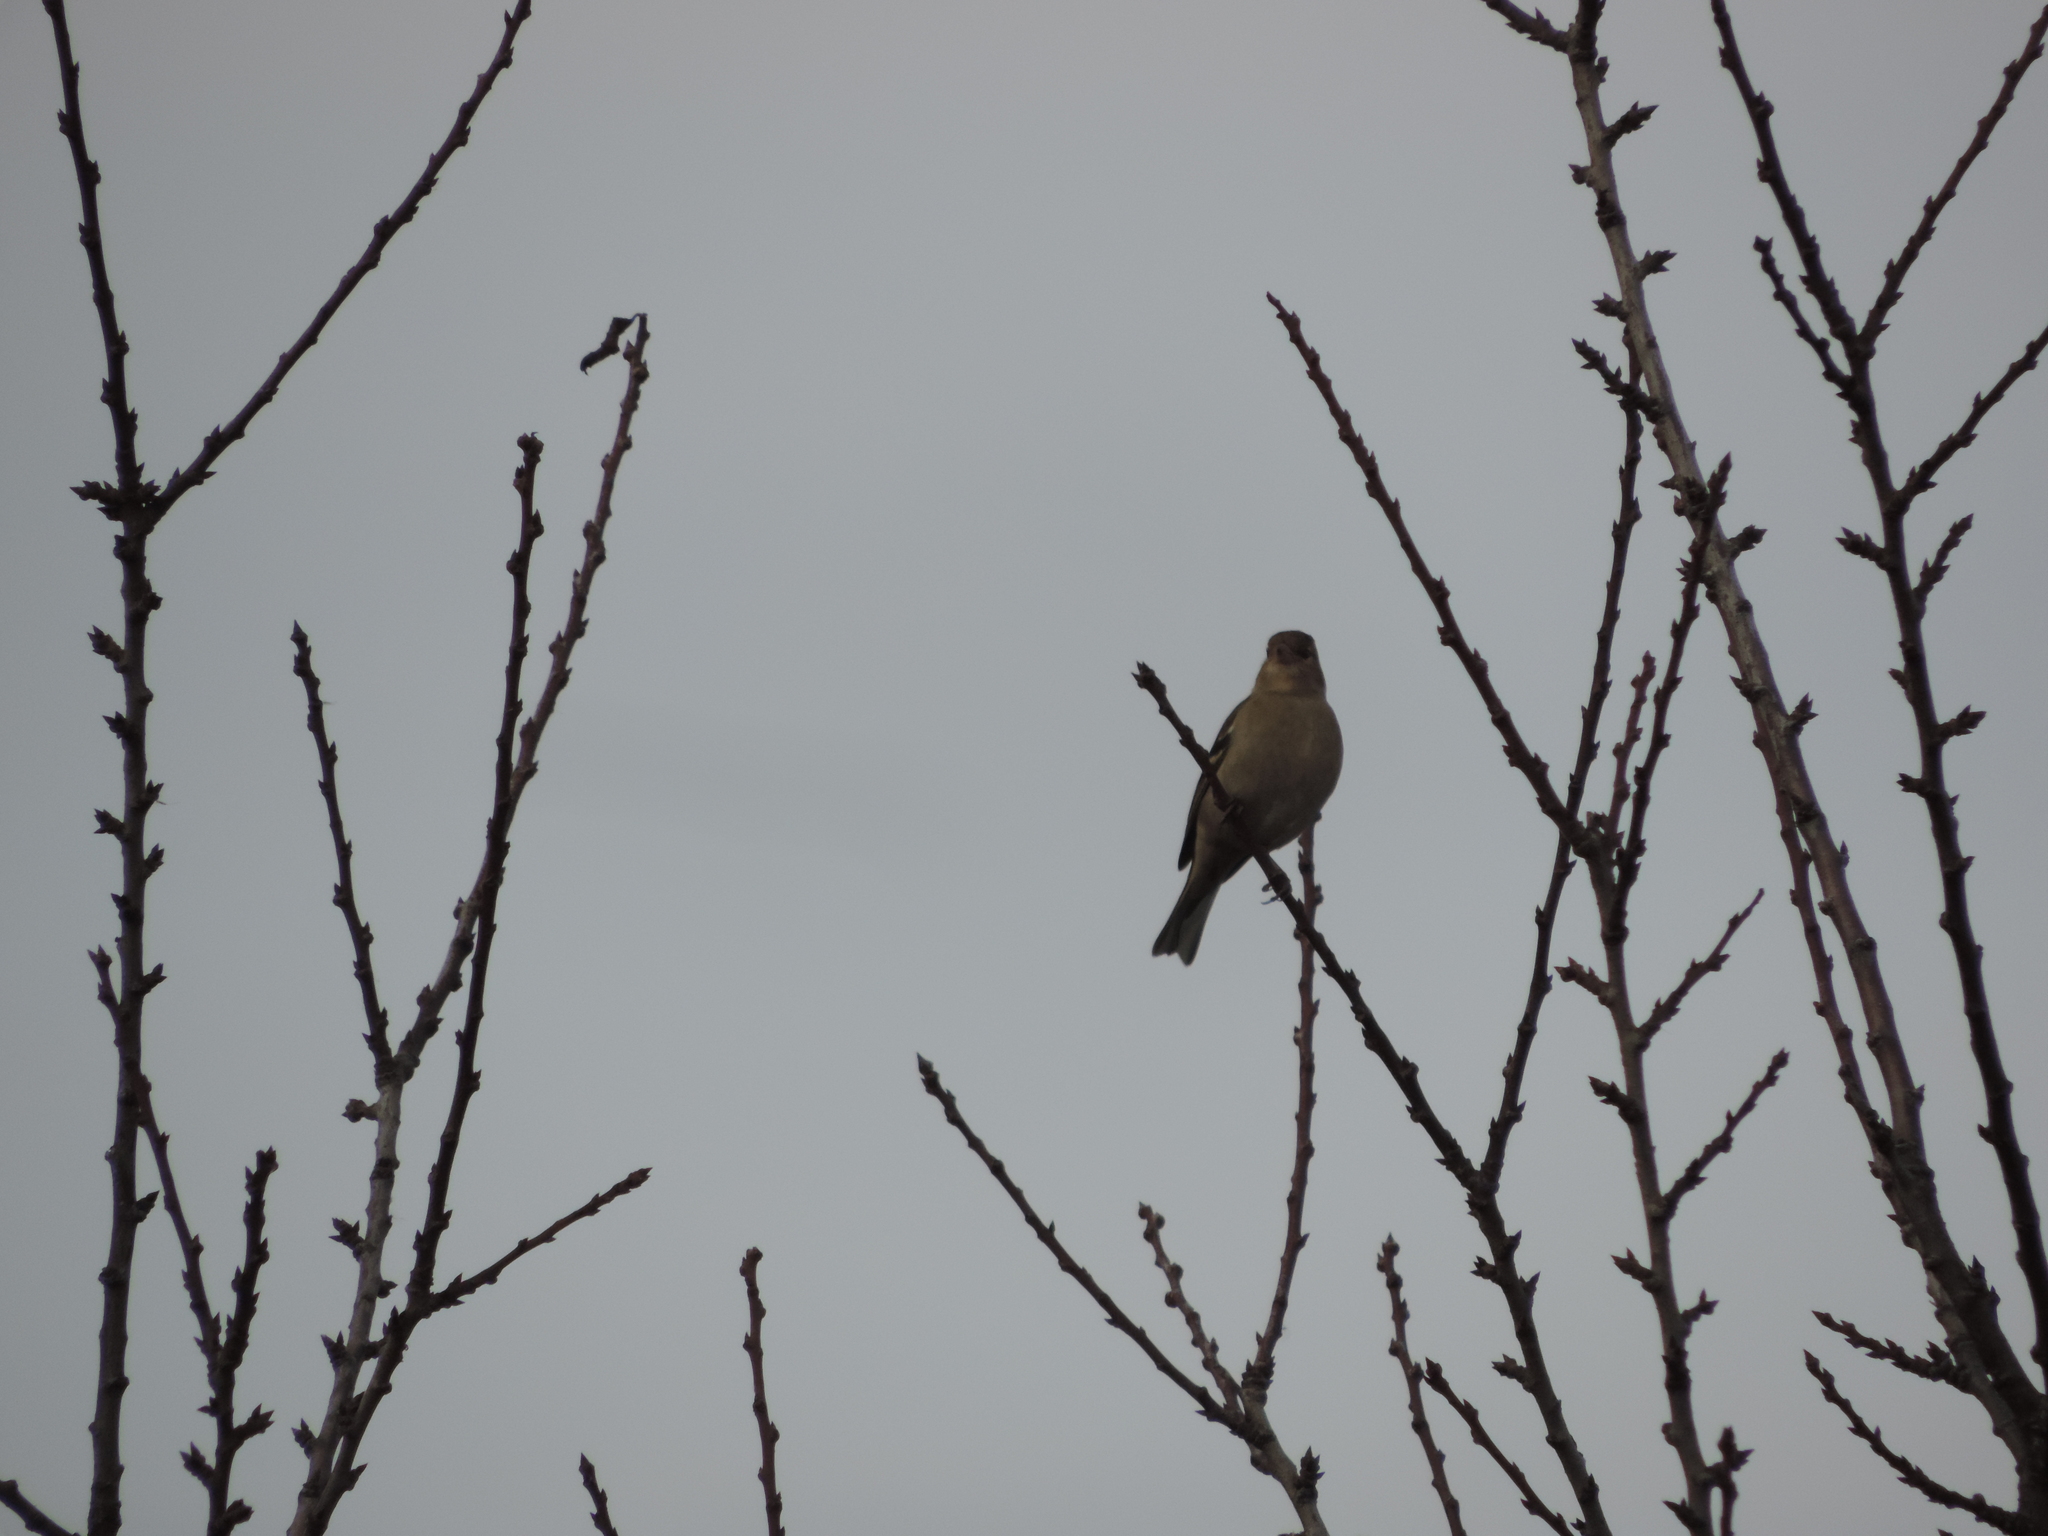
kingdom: Animalia
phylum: Chordata
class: Aves
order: Passeriformes
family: Fringillidae
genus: Fringilla
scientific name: Fringilla coelebs
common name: Common chaffinch
